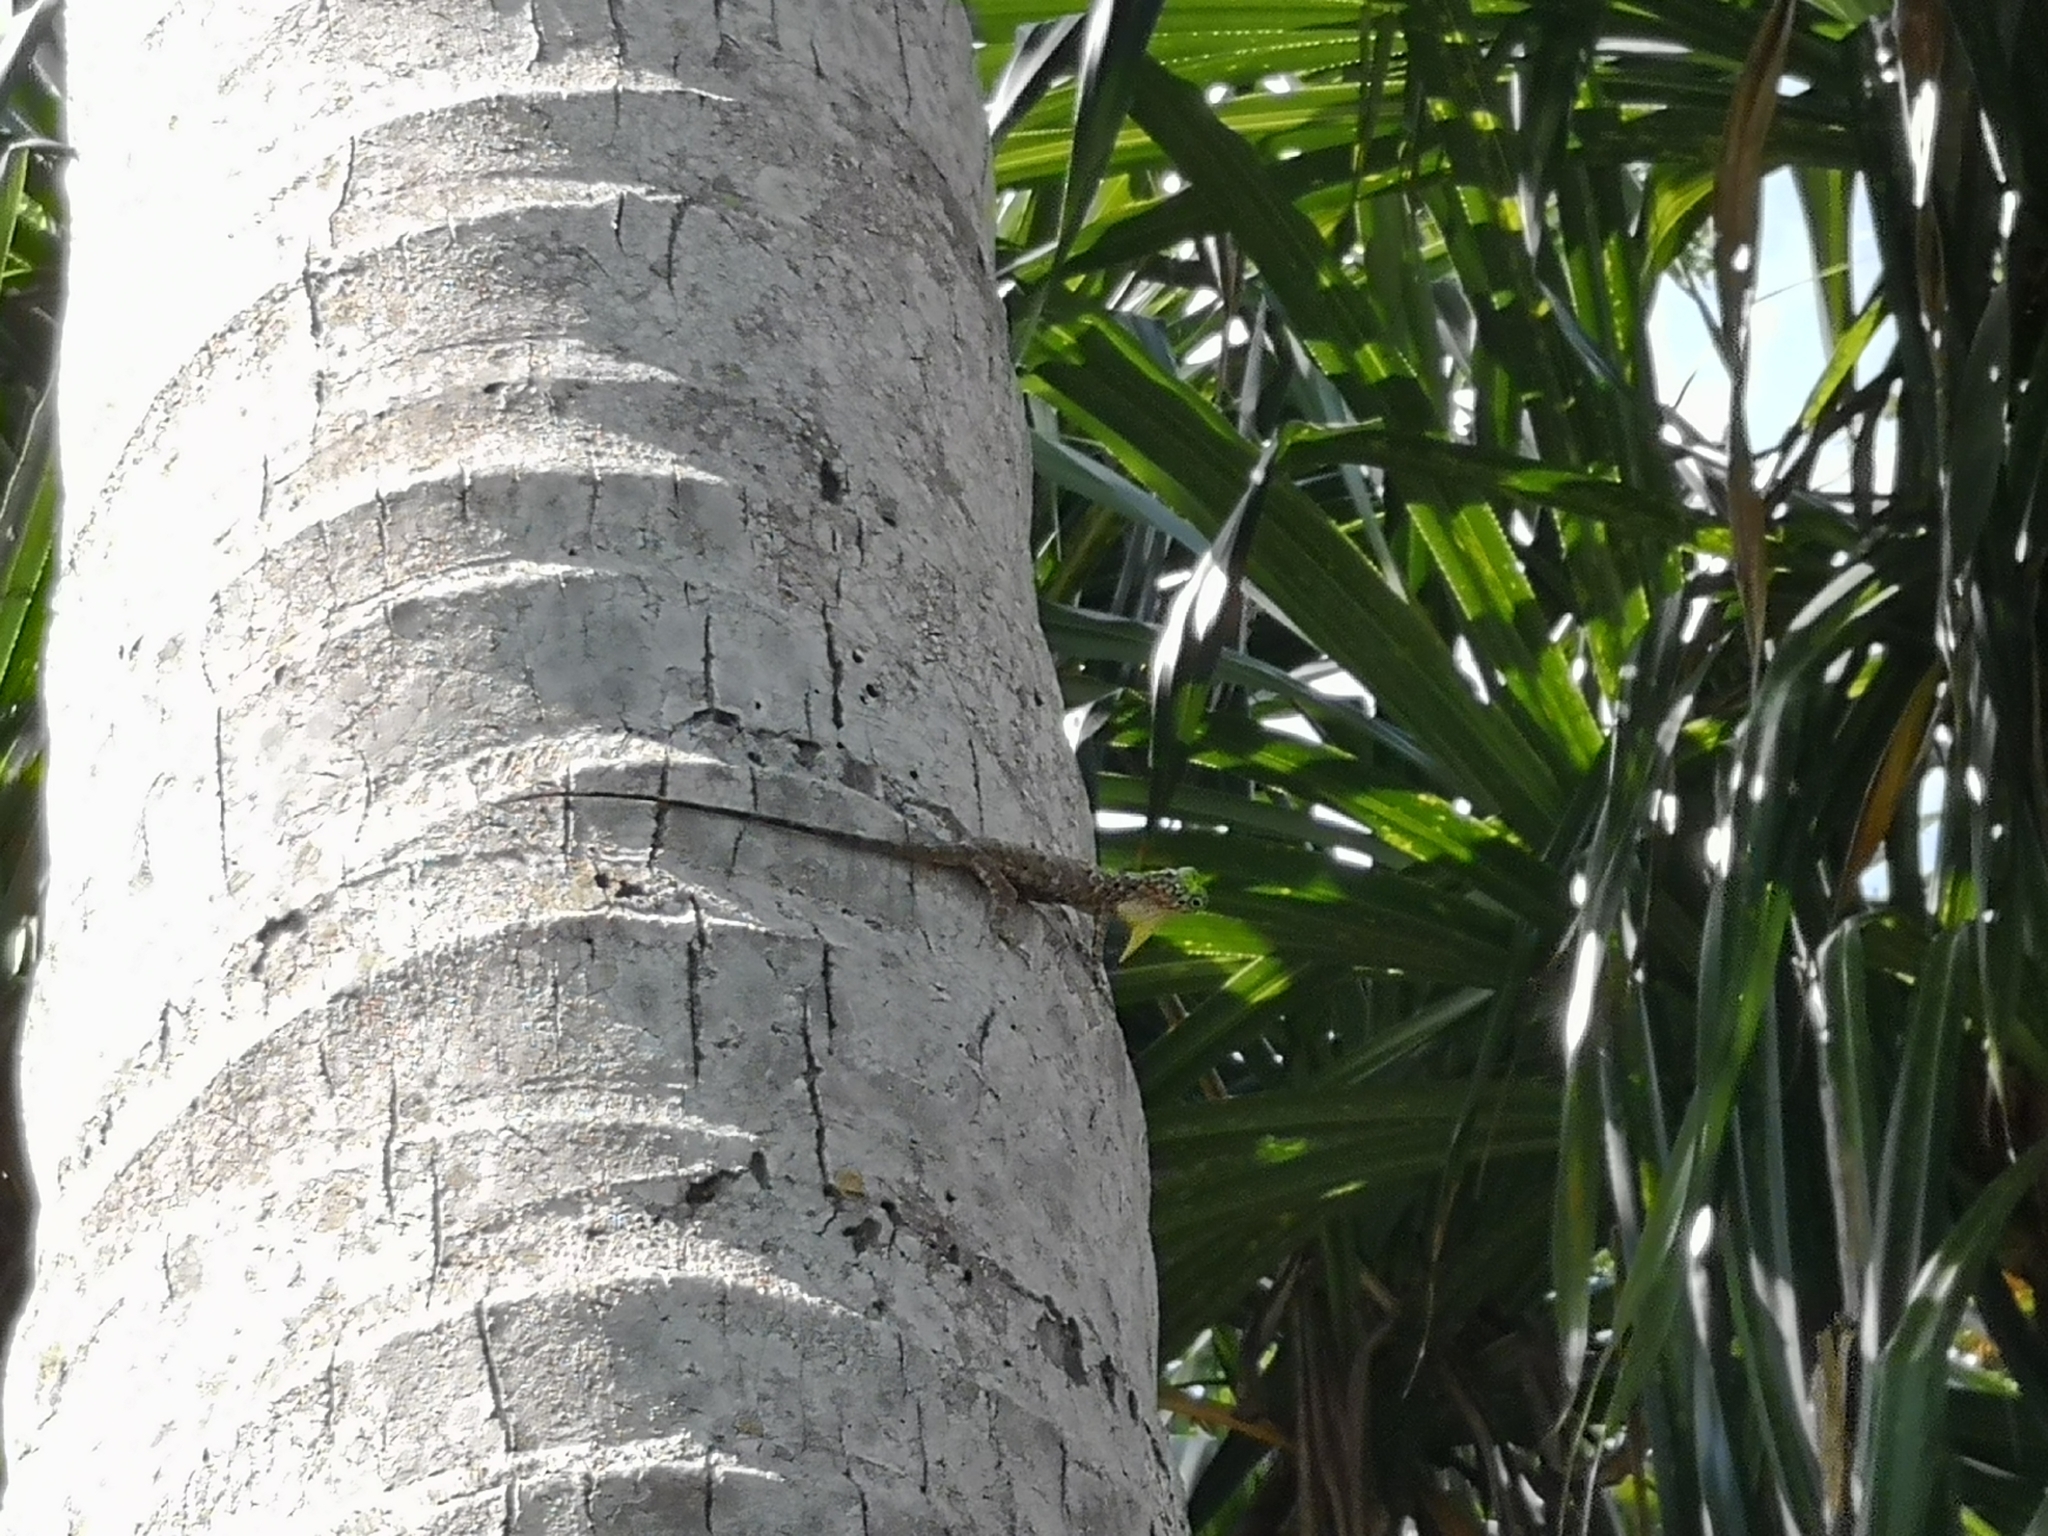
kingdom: Animalia
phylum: Chordata
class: Squamata
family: Agamidae
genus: Draco
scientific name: Draco sumatranus
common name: Common gliding lizard
